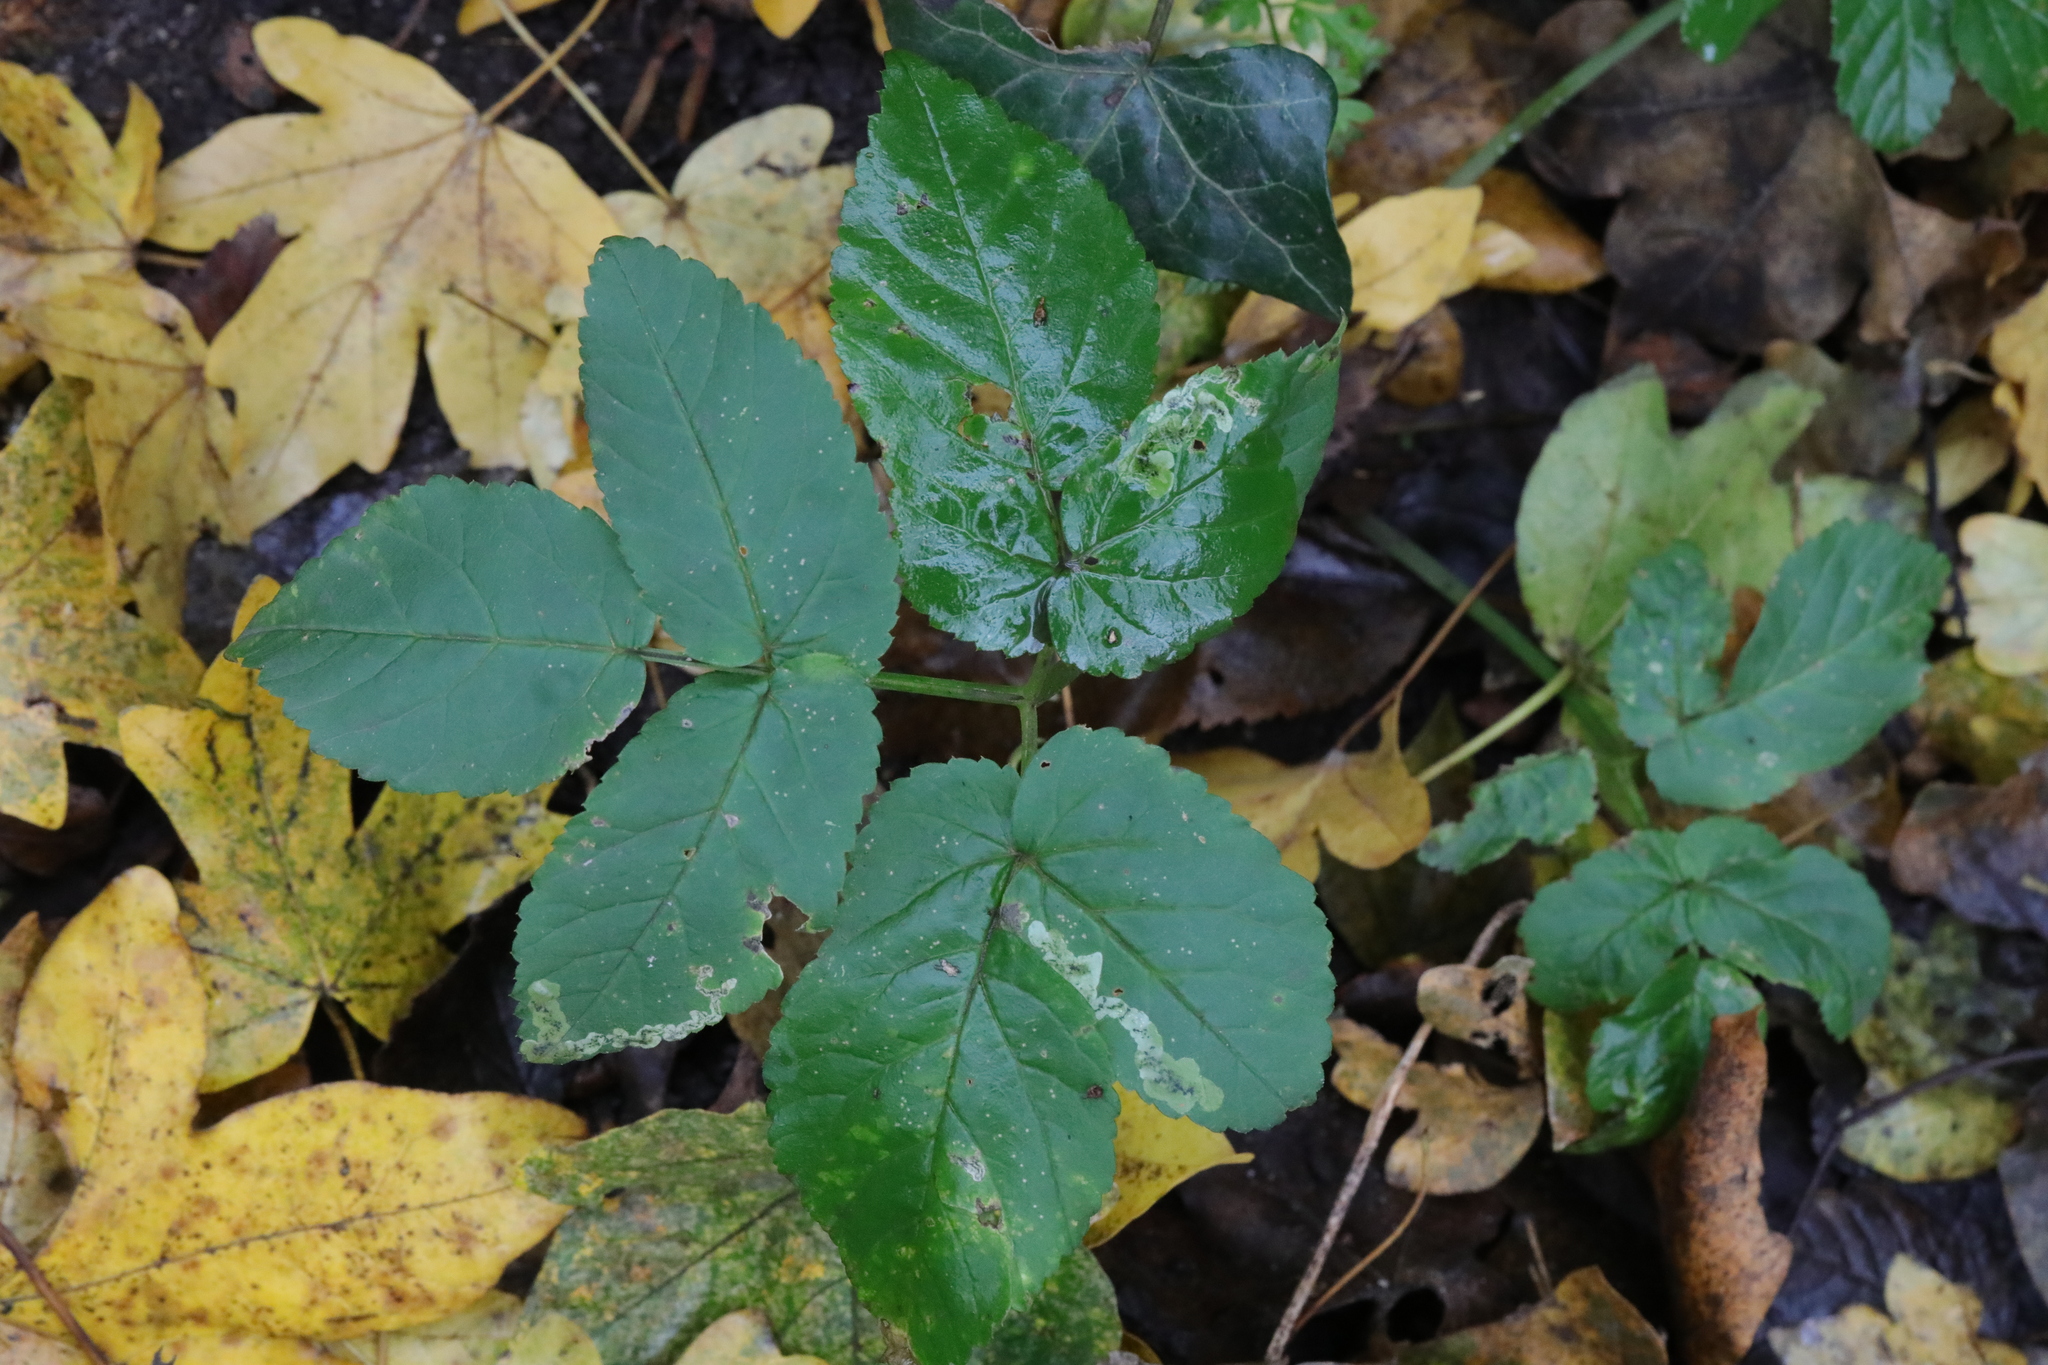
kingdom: Plantae
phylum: Tracheophyta
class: Magnoliopsida
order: Apiales
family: Apiaceae
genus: Aegopodium
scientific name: Aegopodium podagraria
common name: Ground-elder
